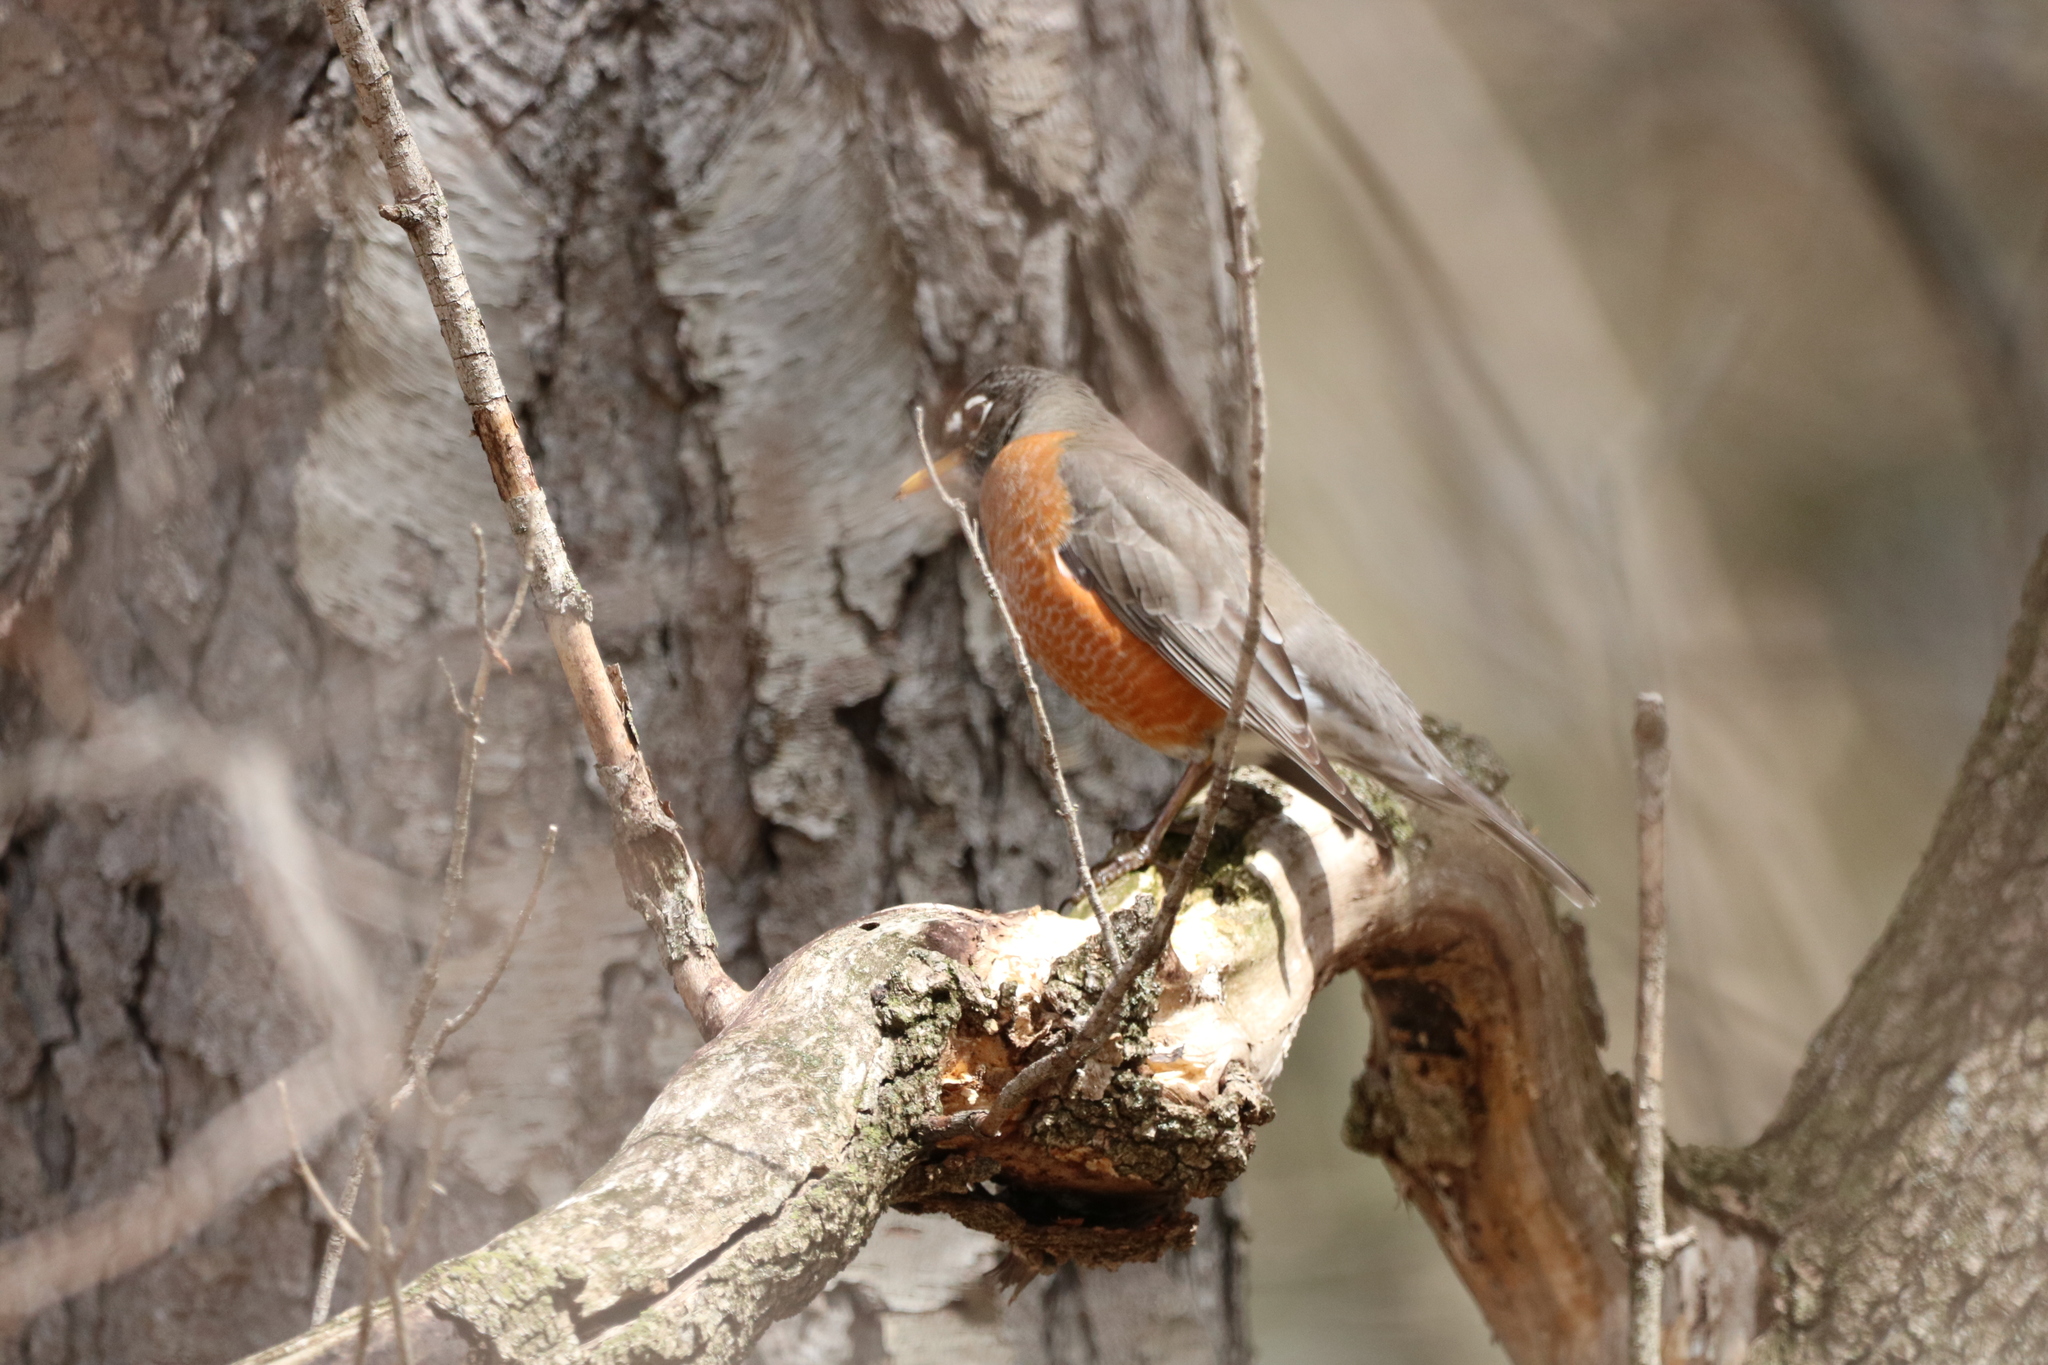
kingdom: Animalia
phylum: Chordata
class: Aves
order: Passeriformes
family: Turdidae
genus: Turdus
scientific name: Turdus migratorius
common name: American robin
